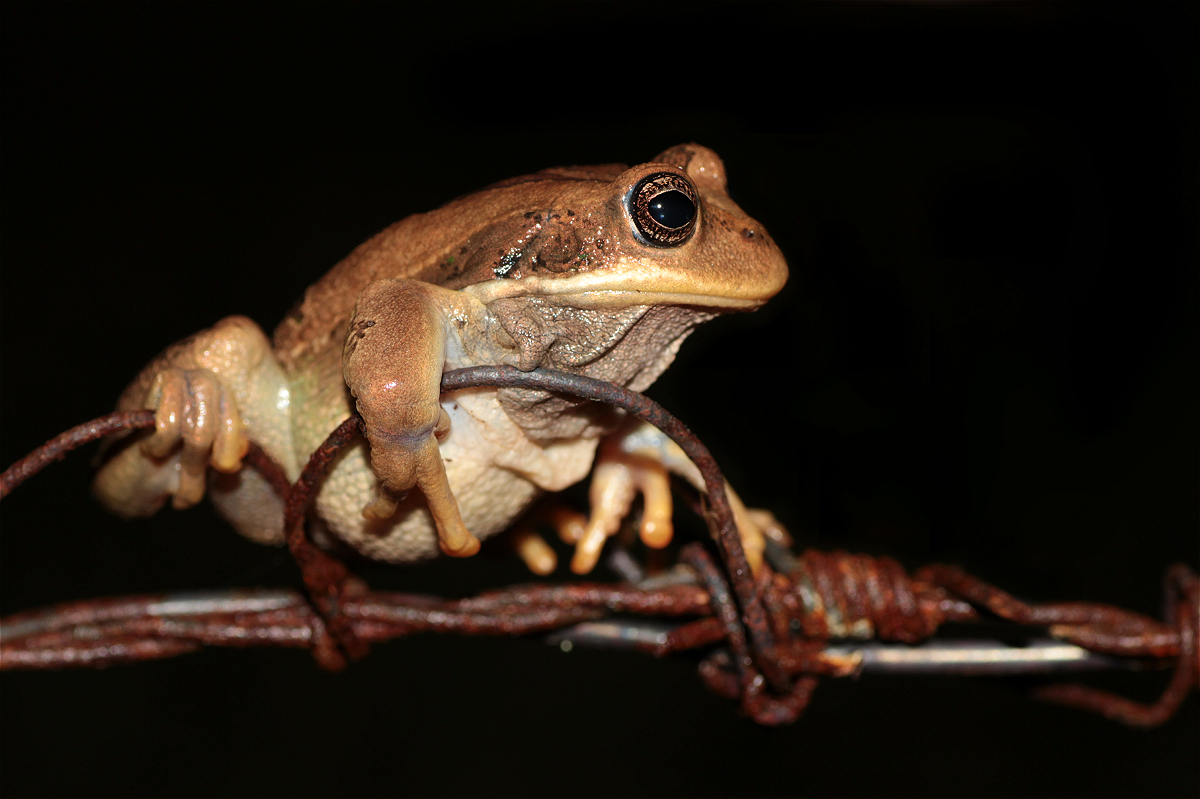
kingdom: Animalia
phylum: Chordata
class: Amphibia
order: Anura
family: Hemiphractidae
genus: Gastrotheca
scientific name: Gastrotheca cuencana
